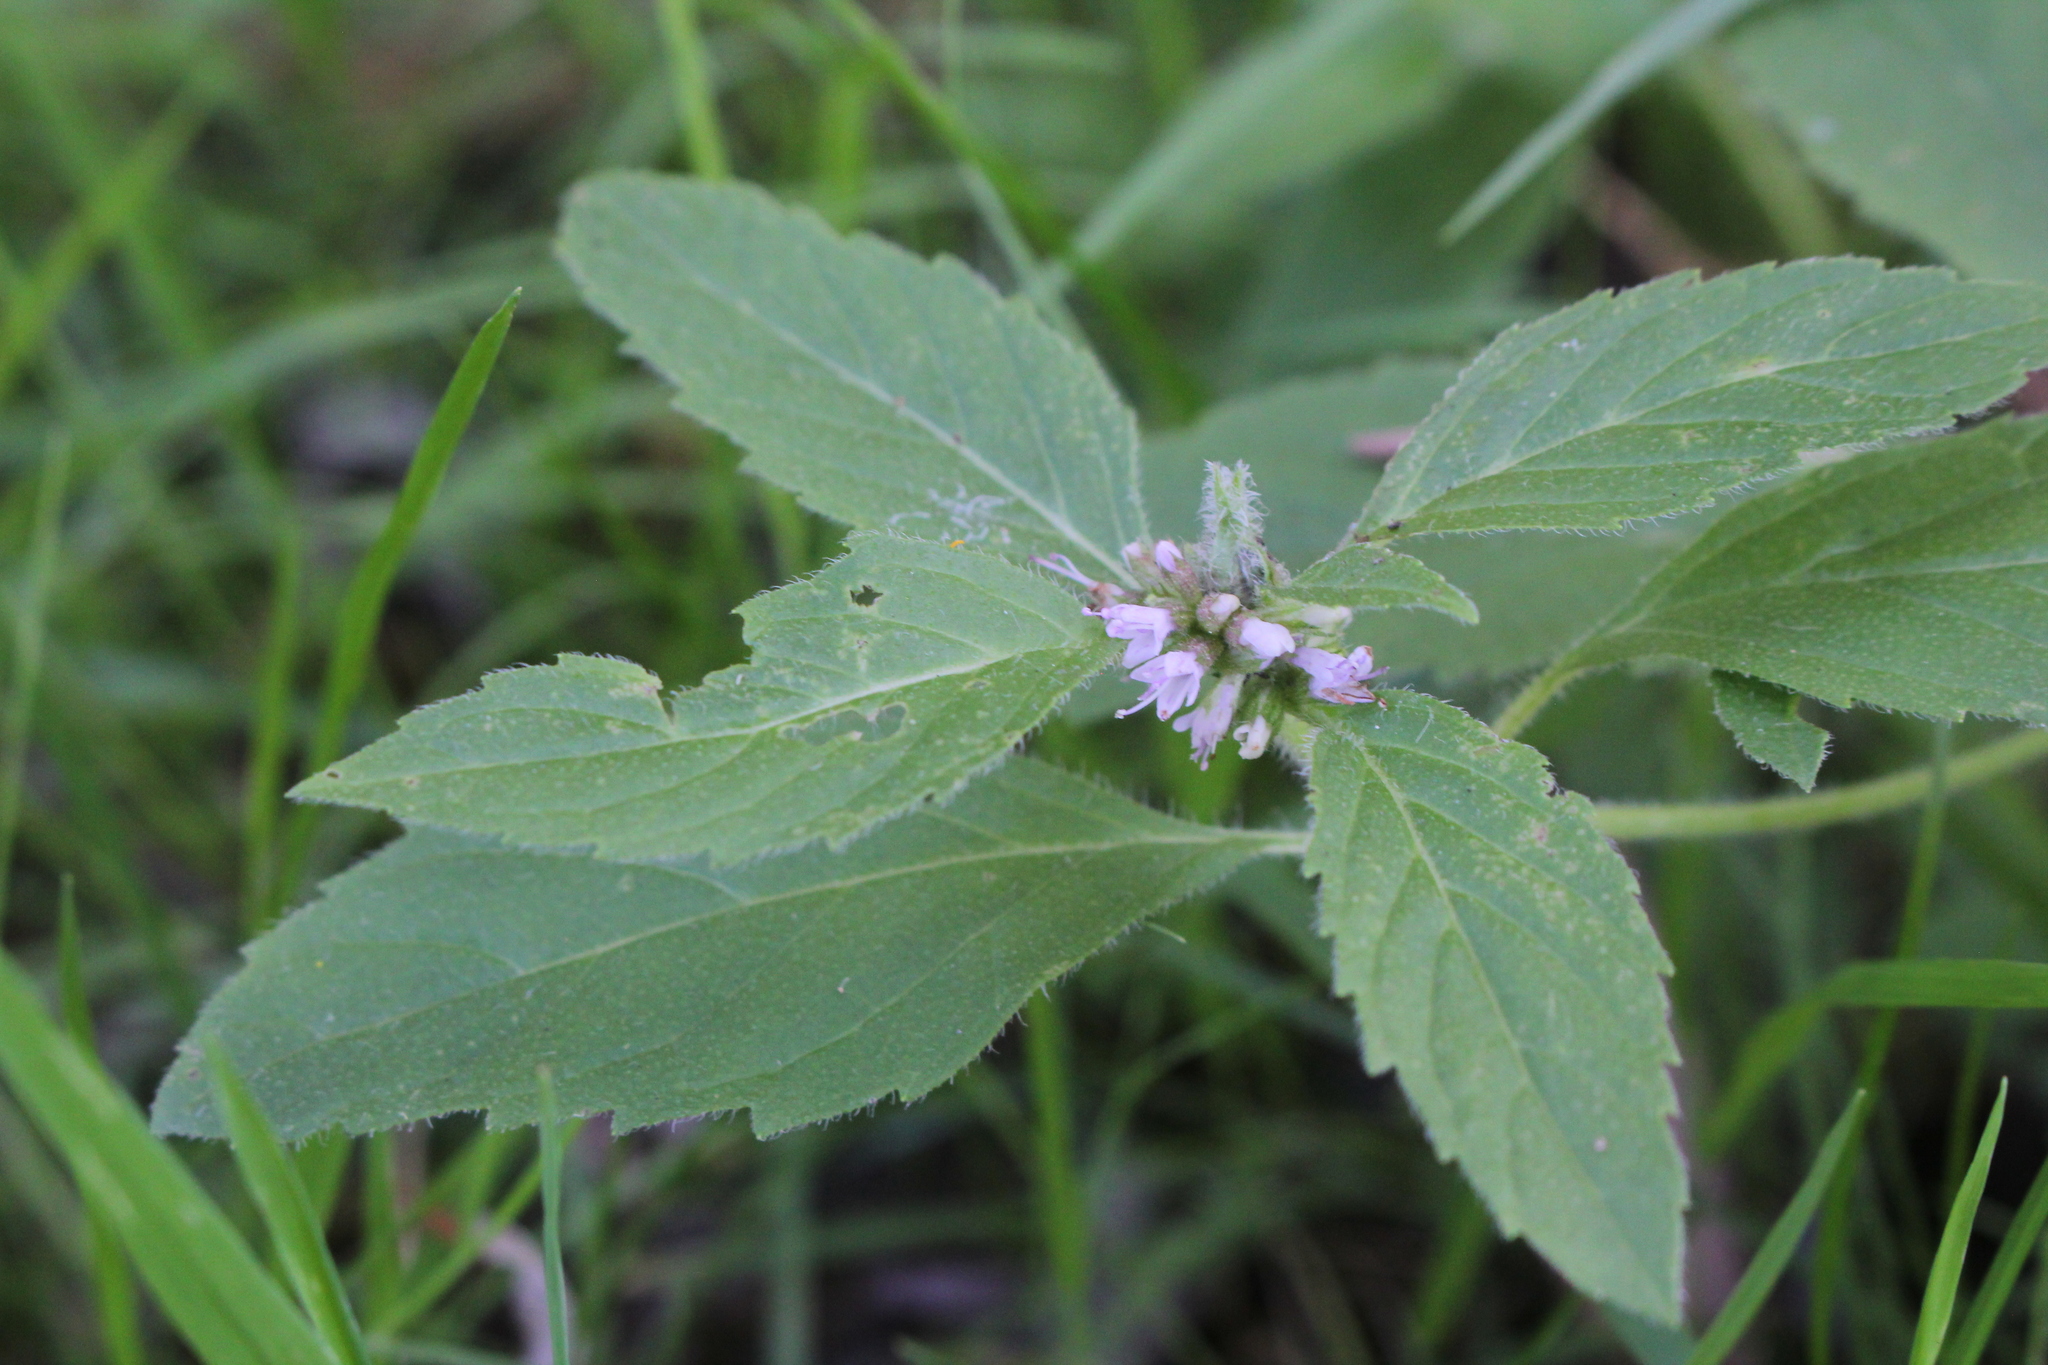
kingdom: Plantae
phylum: Tracheophyta
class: Magnoliopsida
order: Lamiales
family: Lamiaceae
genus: Mentha
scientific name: Mentha canadensis
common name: American corn mint
